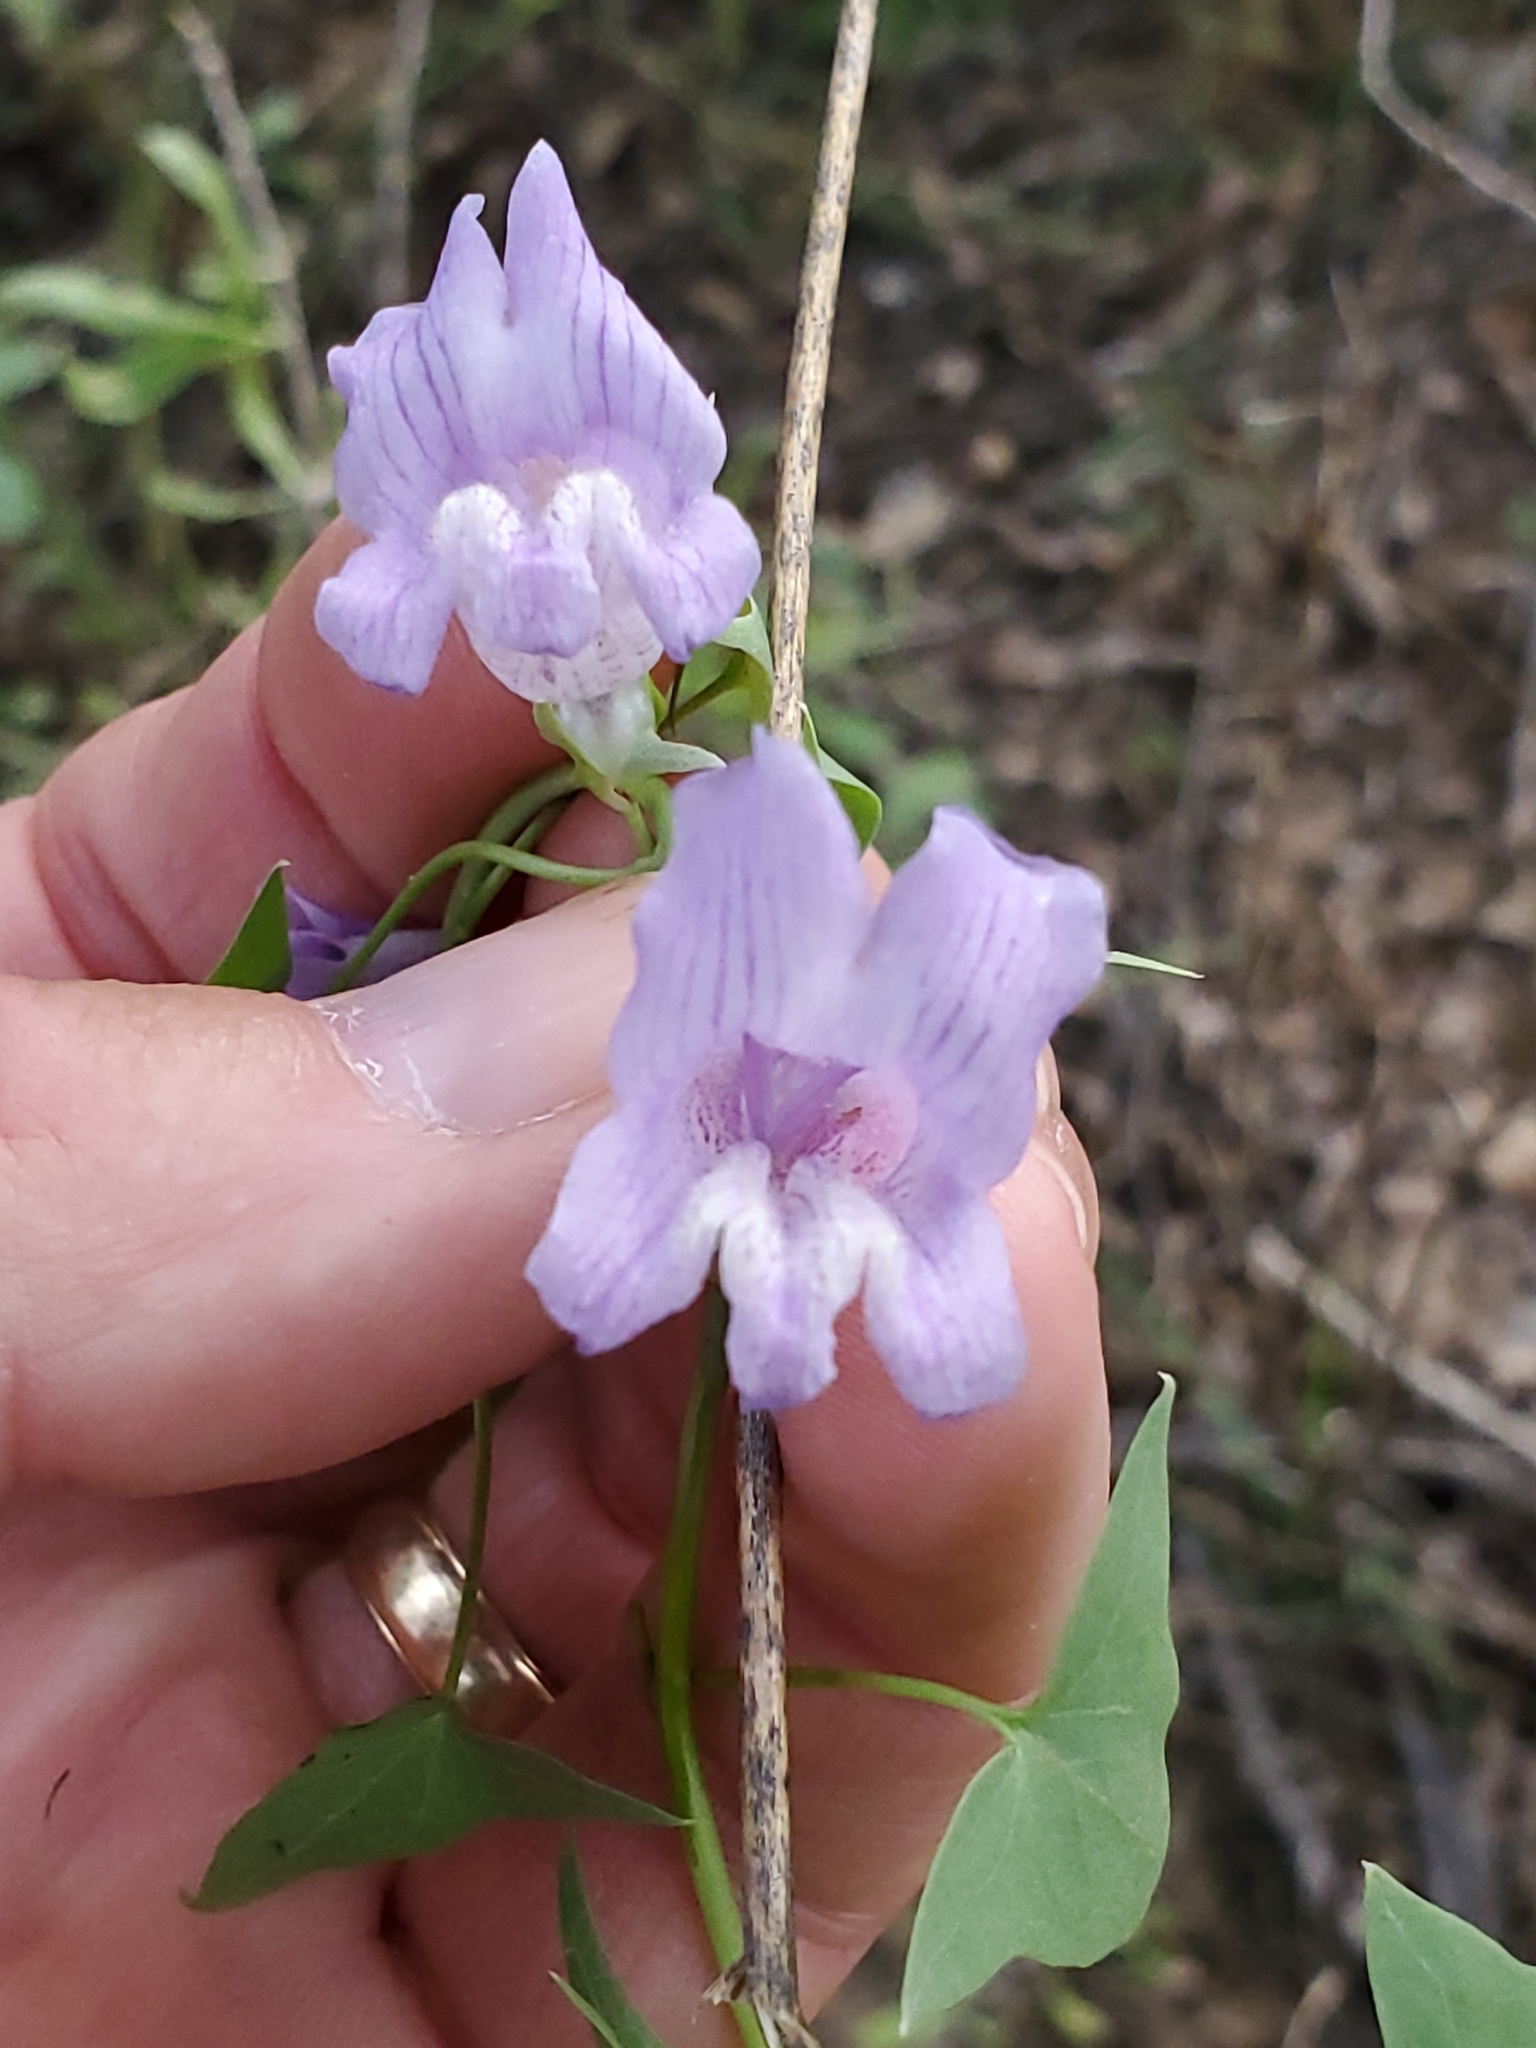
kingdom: Plantae
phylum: Tracheophyta
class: Magnoliopsida
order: Lamiales
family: Plantaginaceae
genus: Maurandella
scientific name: Maurandella antirrhiniflora
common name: Violet twining-snapdragon
